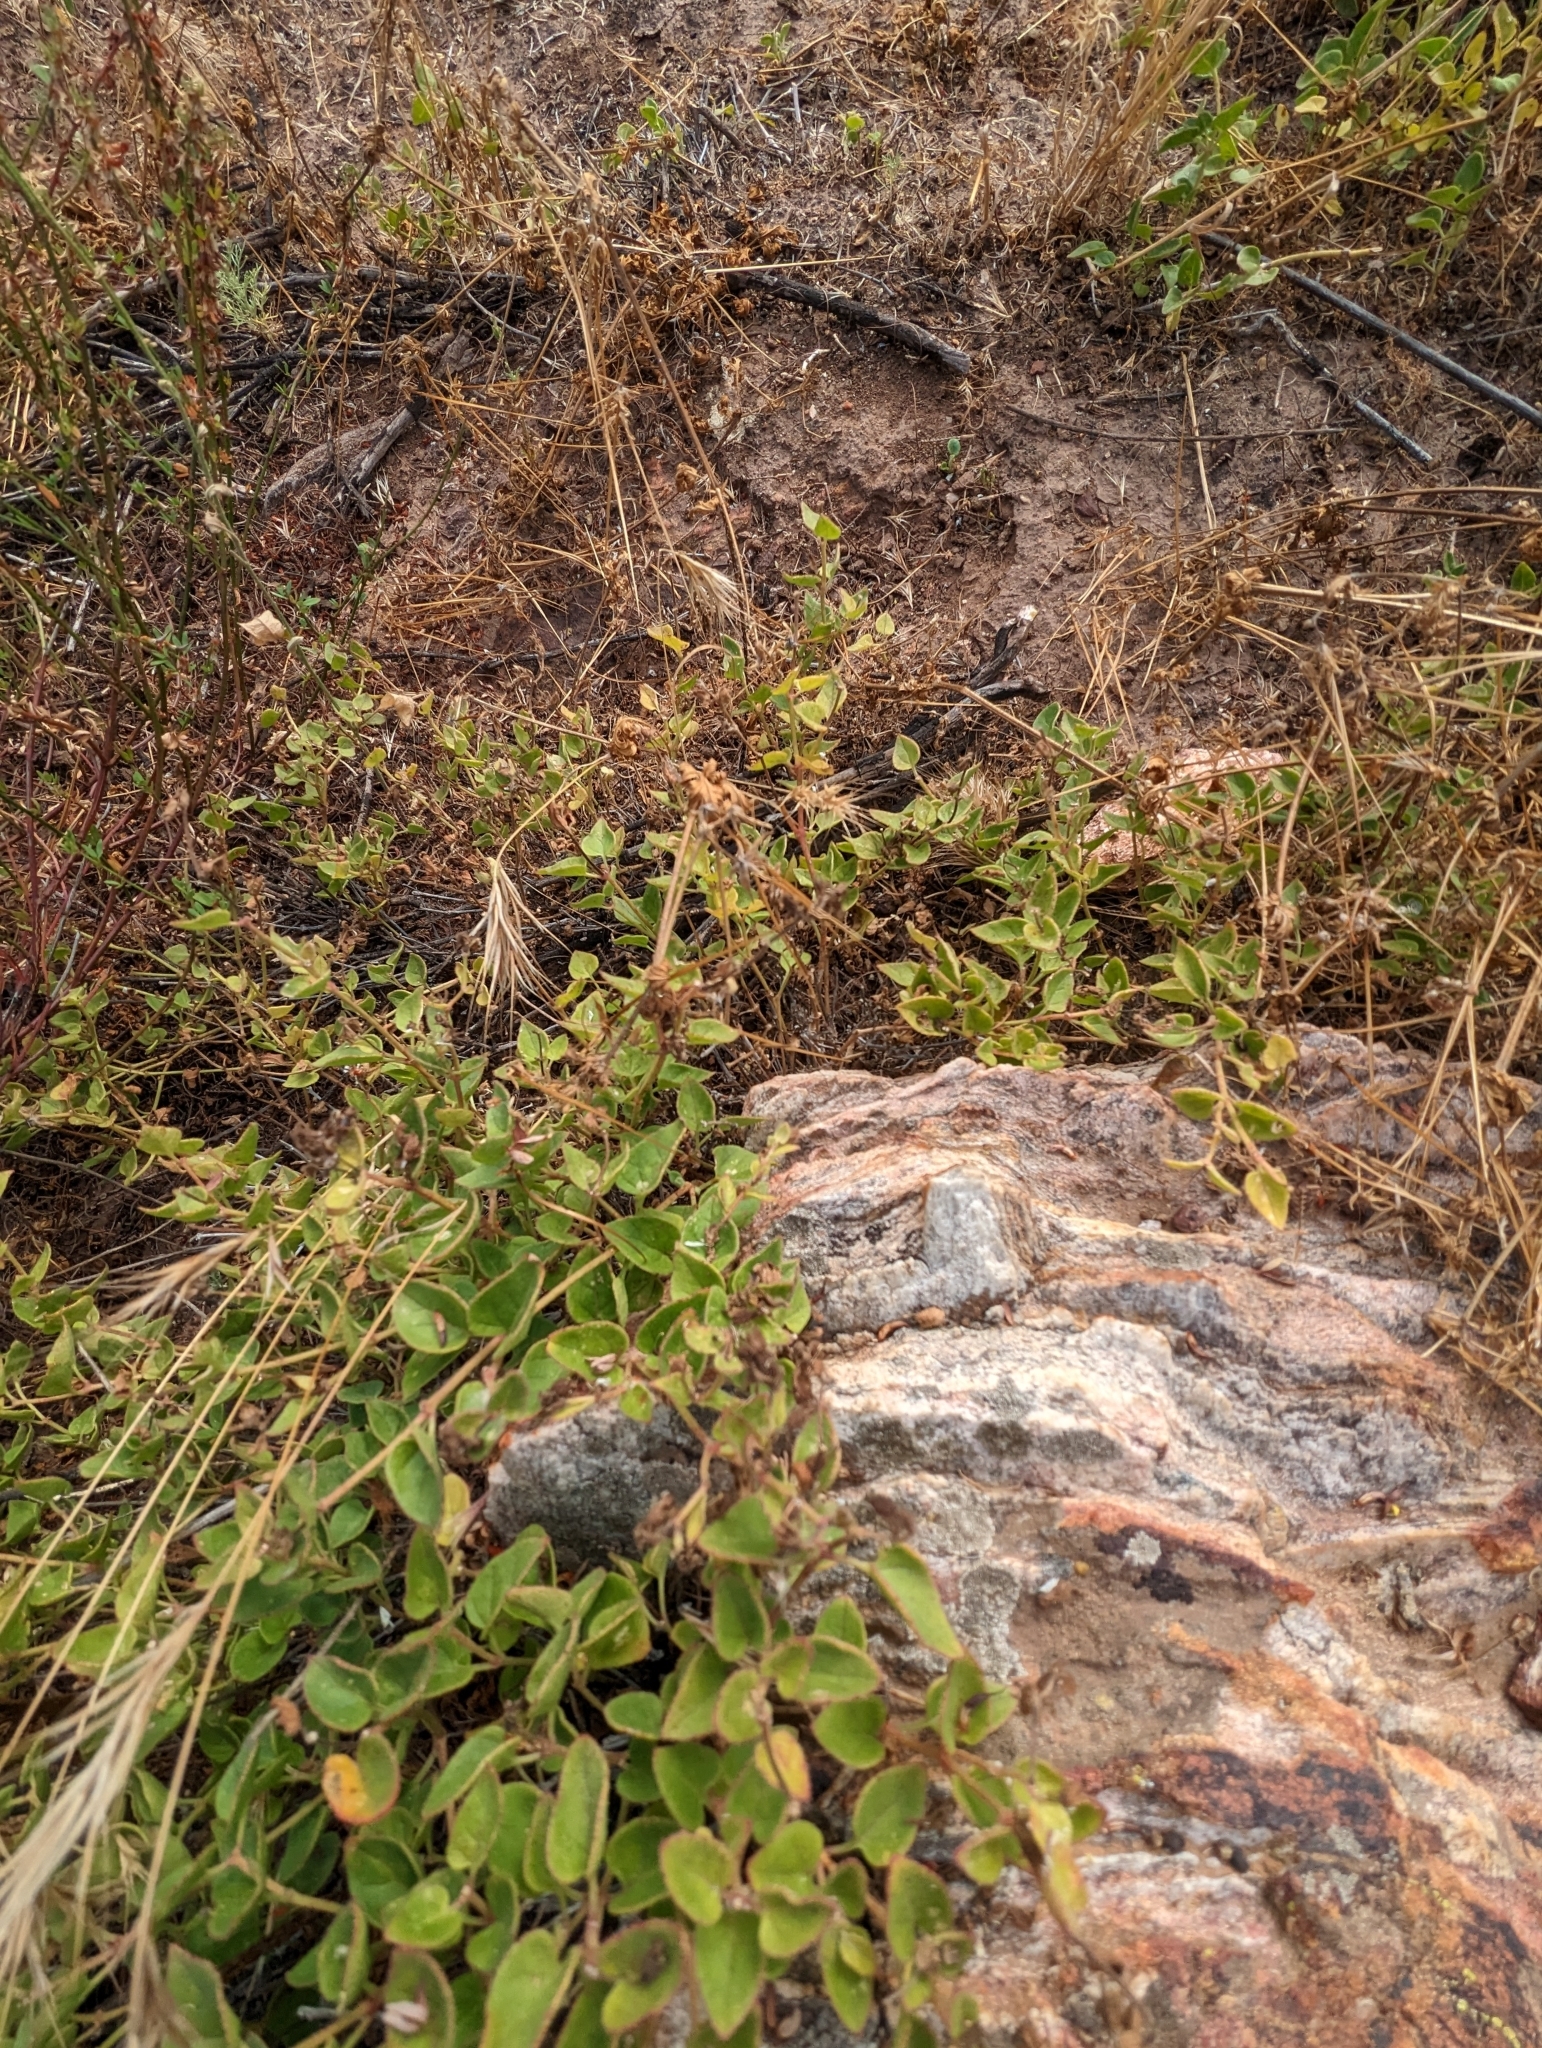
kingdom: Plantae
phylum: Tracheophyta
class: Magnoliopsida
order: Caryophyllales
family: Nyctaginaceae
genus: Mirabilis
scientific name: Mirabilis laevis
